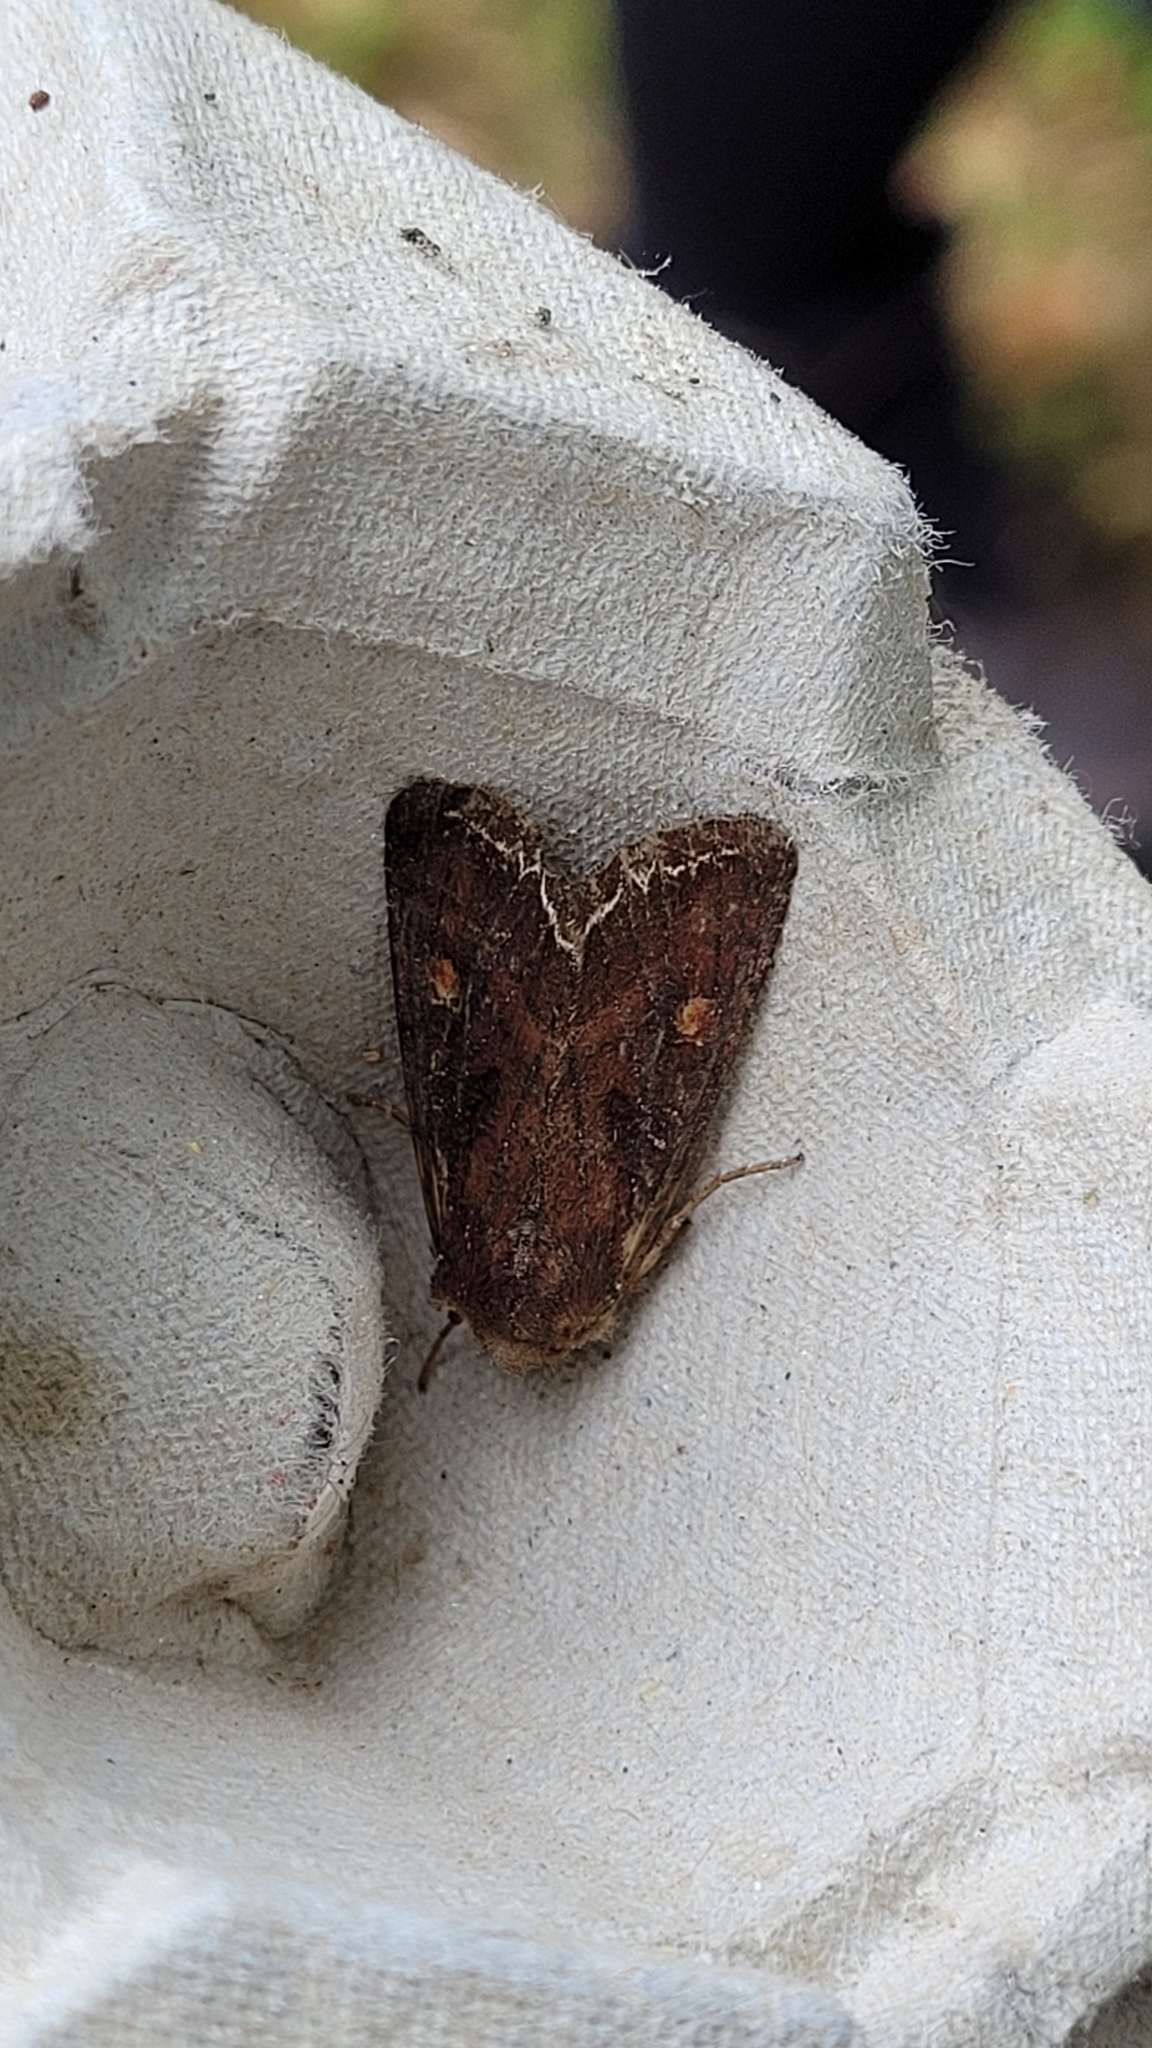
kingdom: Animalia
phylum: Arthropoda
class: Insecta
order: Lepidoptera
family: Noctuidae
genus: Lacanobia
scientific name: Lacanobia oleracea
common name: Bright-line brown-eye
